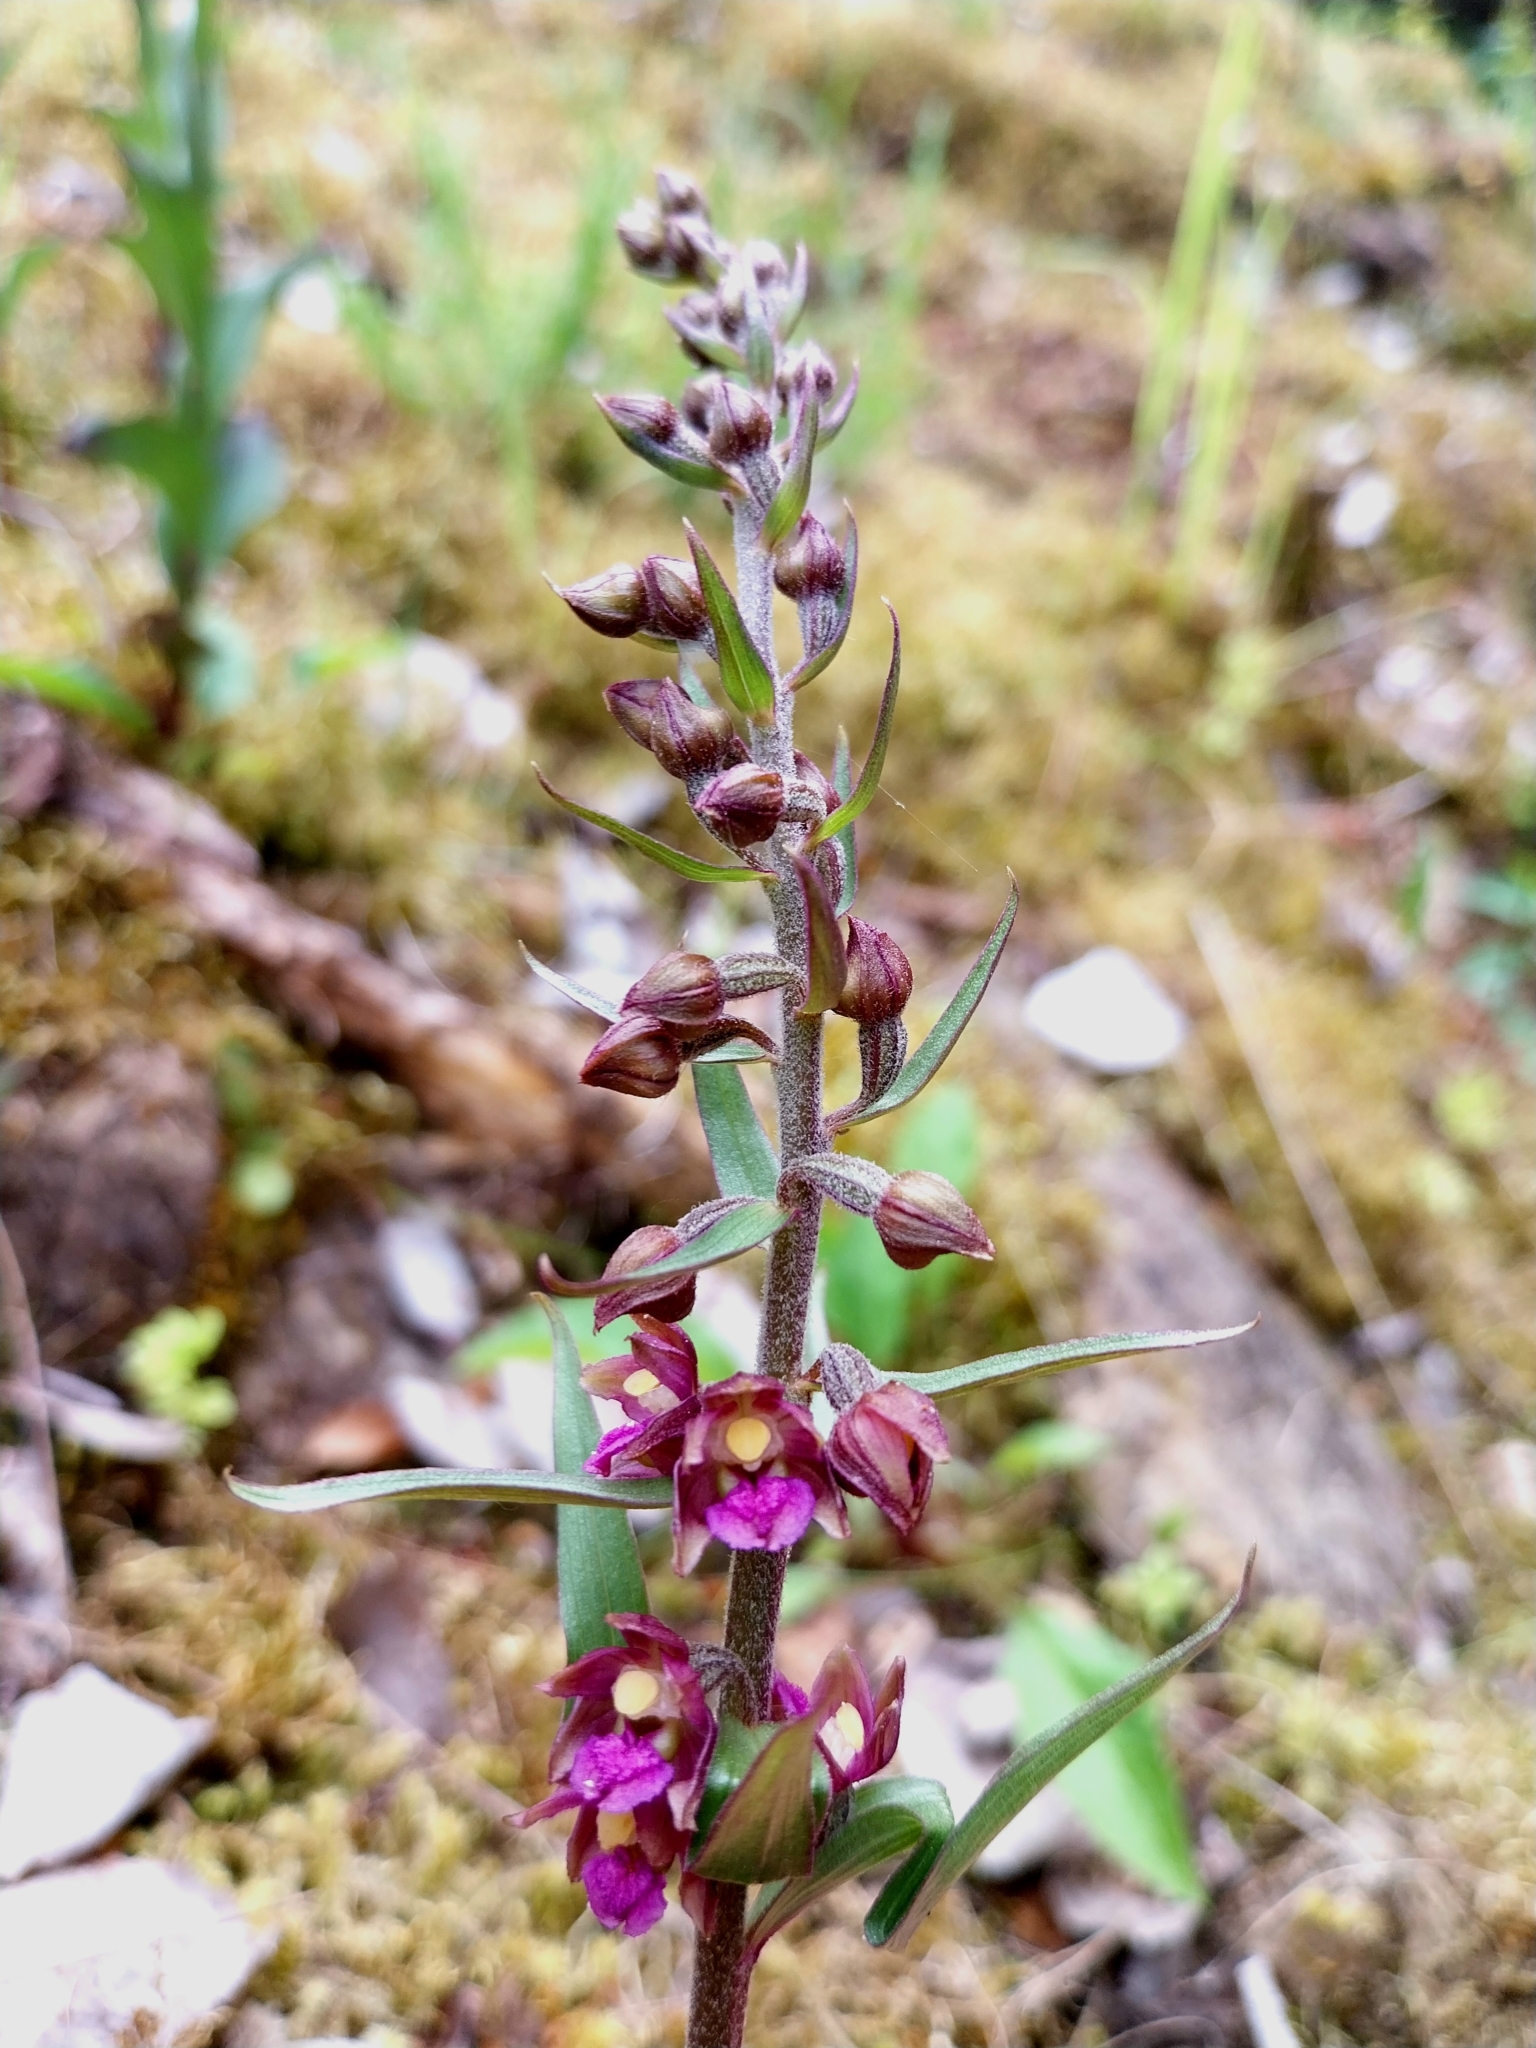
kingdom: Plantae
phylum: Tracheophyta
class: Liliopsida
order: Asparagales
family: Orchidaceae
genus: Epipactis
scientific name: Epipactis atrorubens
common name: Dark-red helleborine
